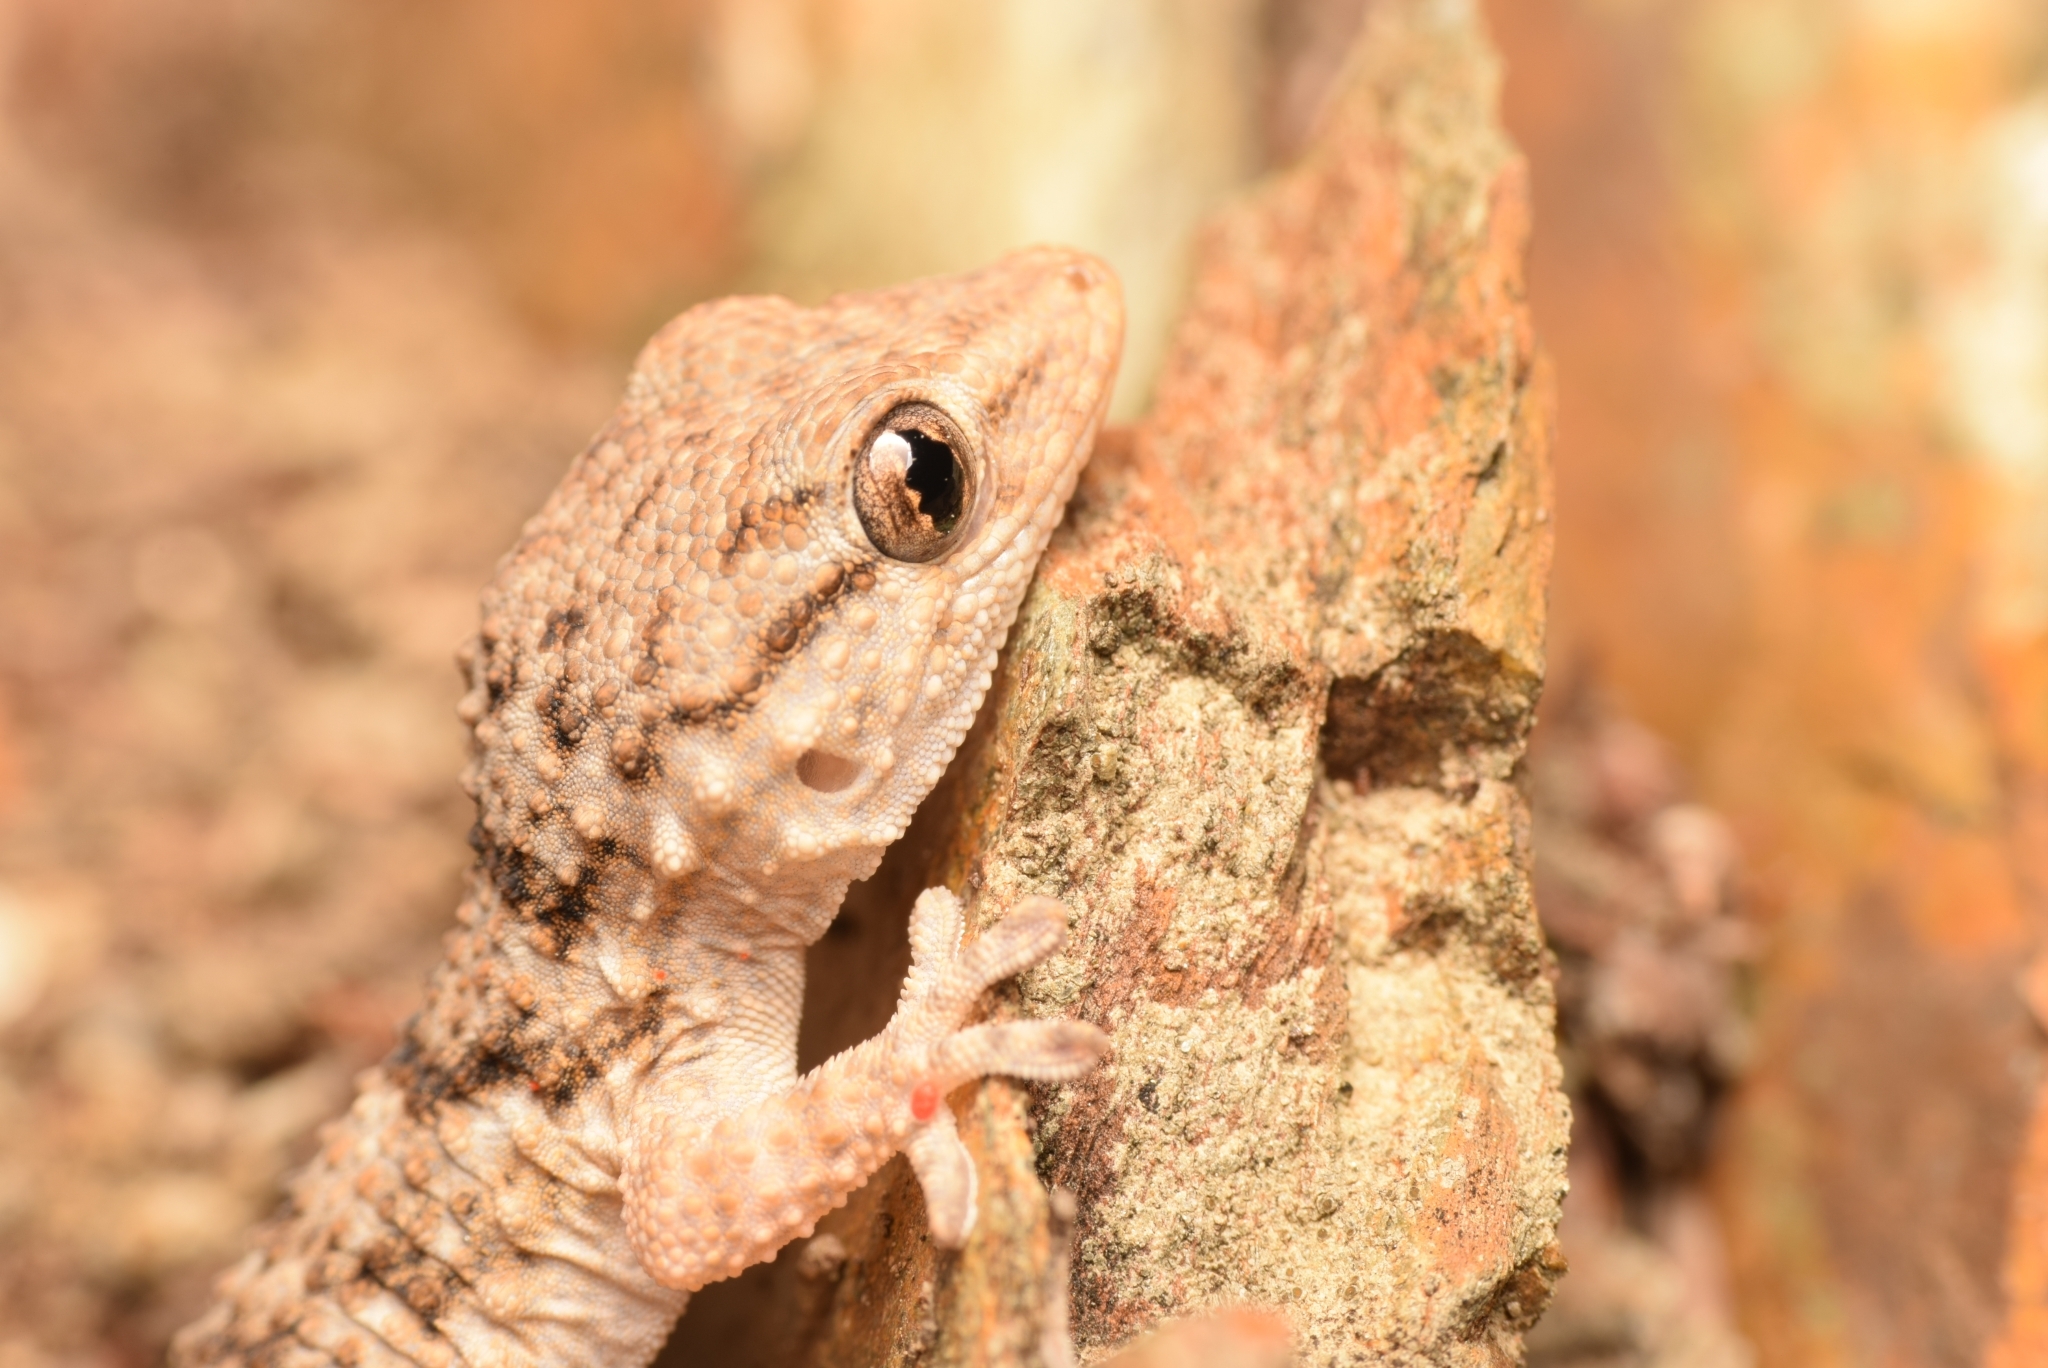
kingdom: Animalia
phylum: Chordata
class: Squamata
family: Phyllodactylidae
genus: Tarentola
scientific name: Tarentola mauritanica
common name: Moorish gecko
